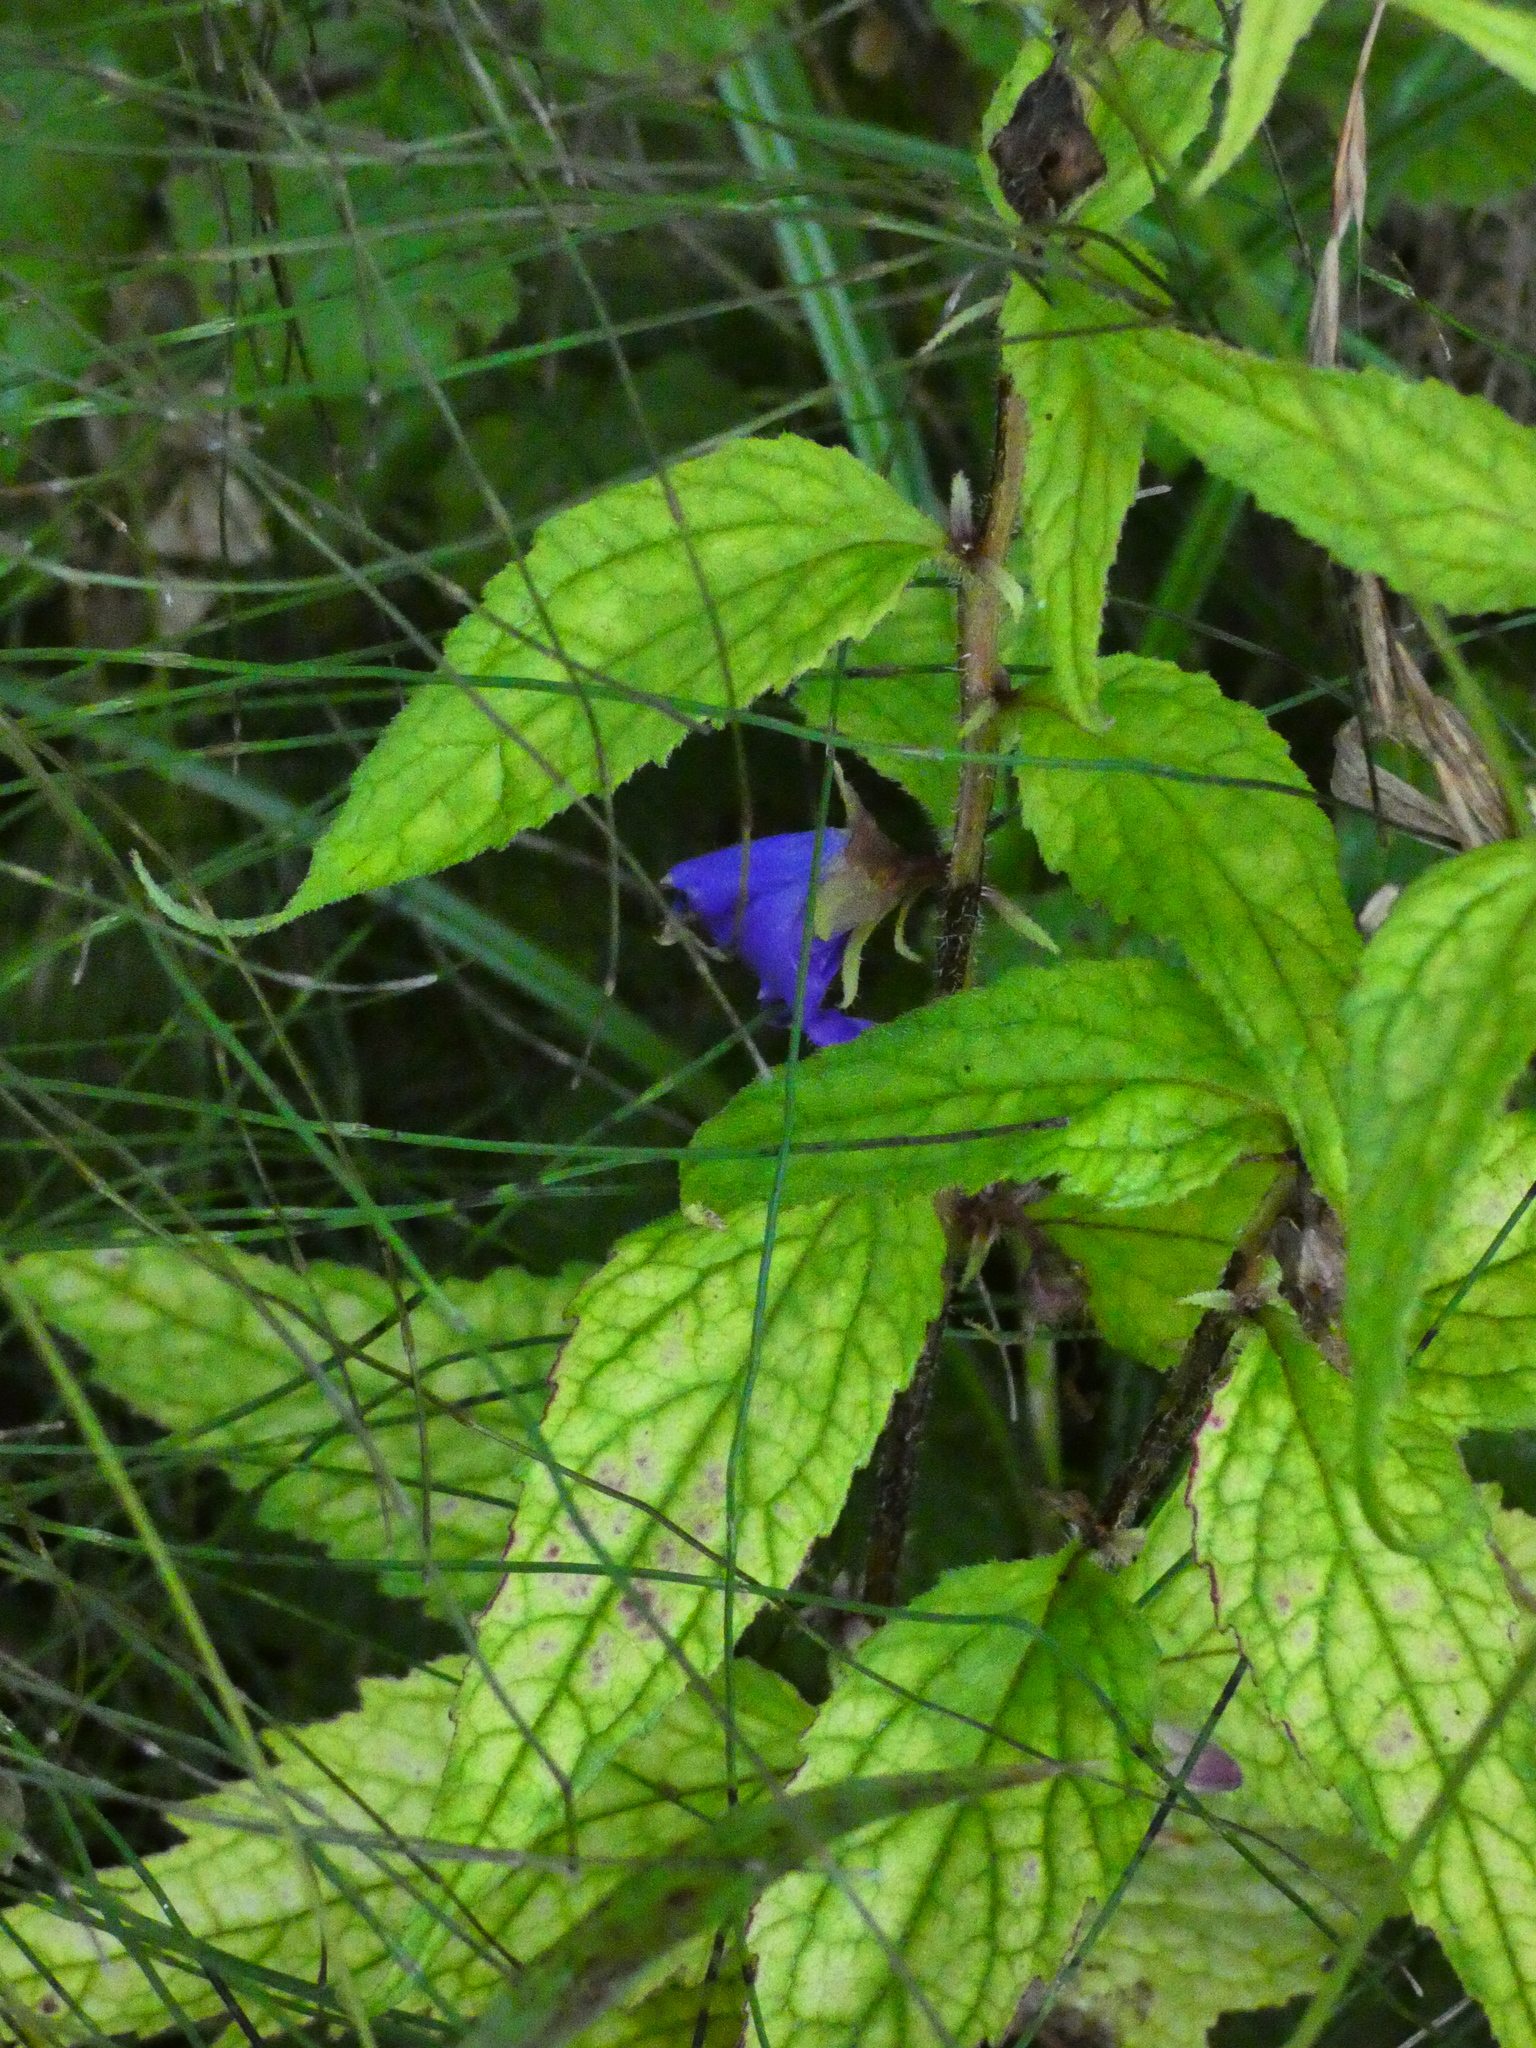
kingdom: Plantae
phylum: Tracheophyta
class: Magnoliopsida
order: Asterales
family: Campanulaceae
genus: Campanula
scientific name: Campanula trachelium
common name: Nettle-leaved bellflower
